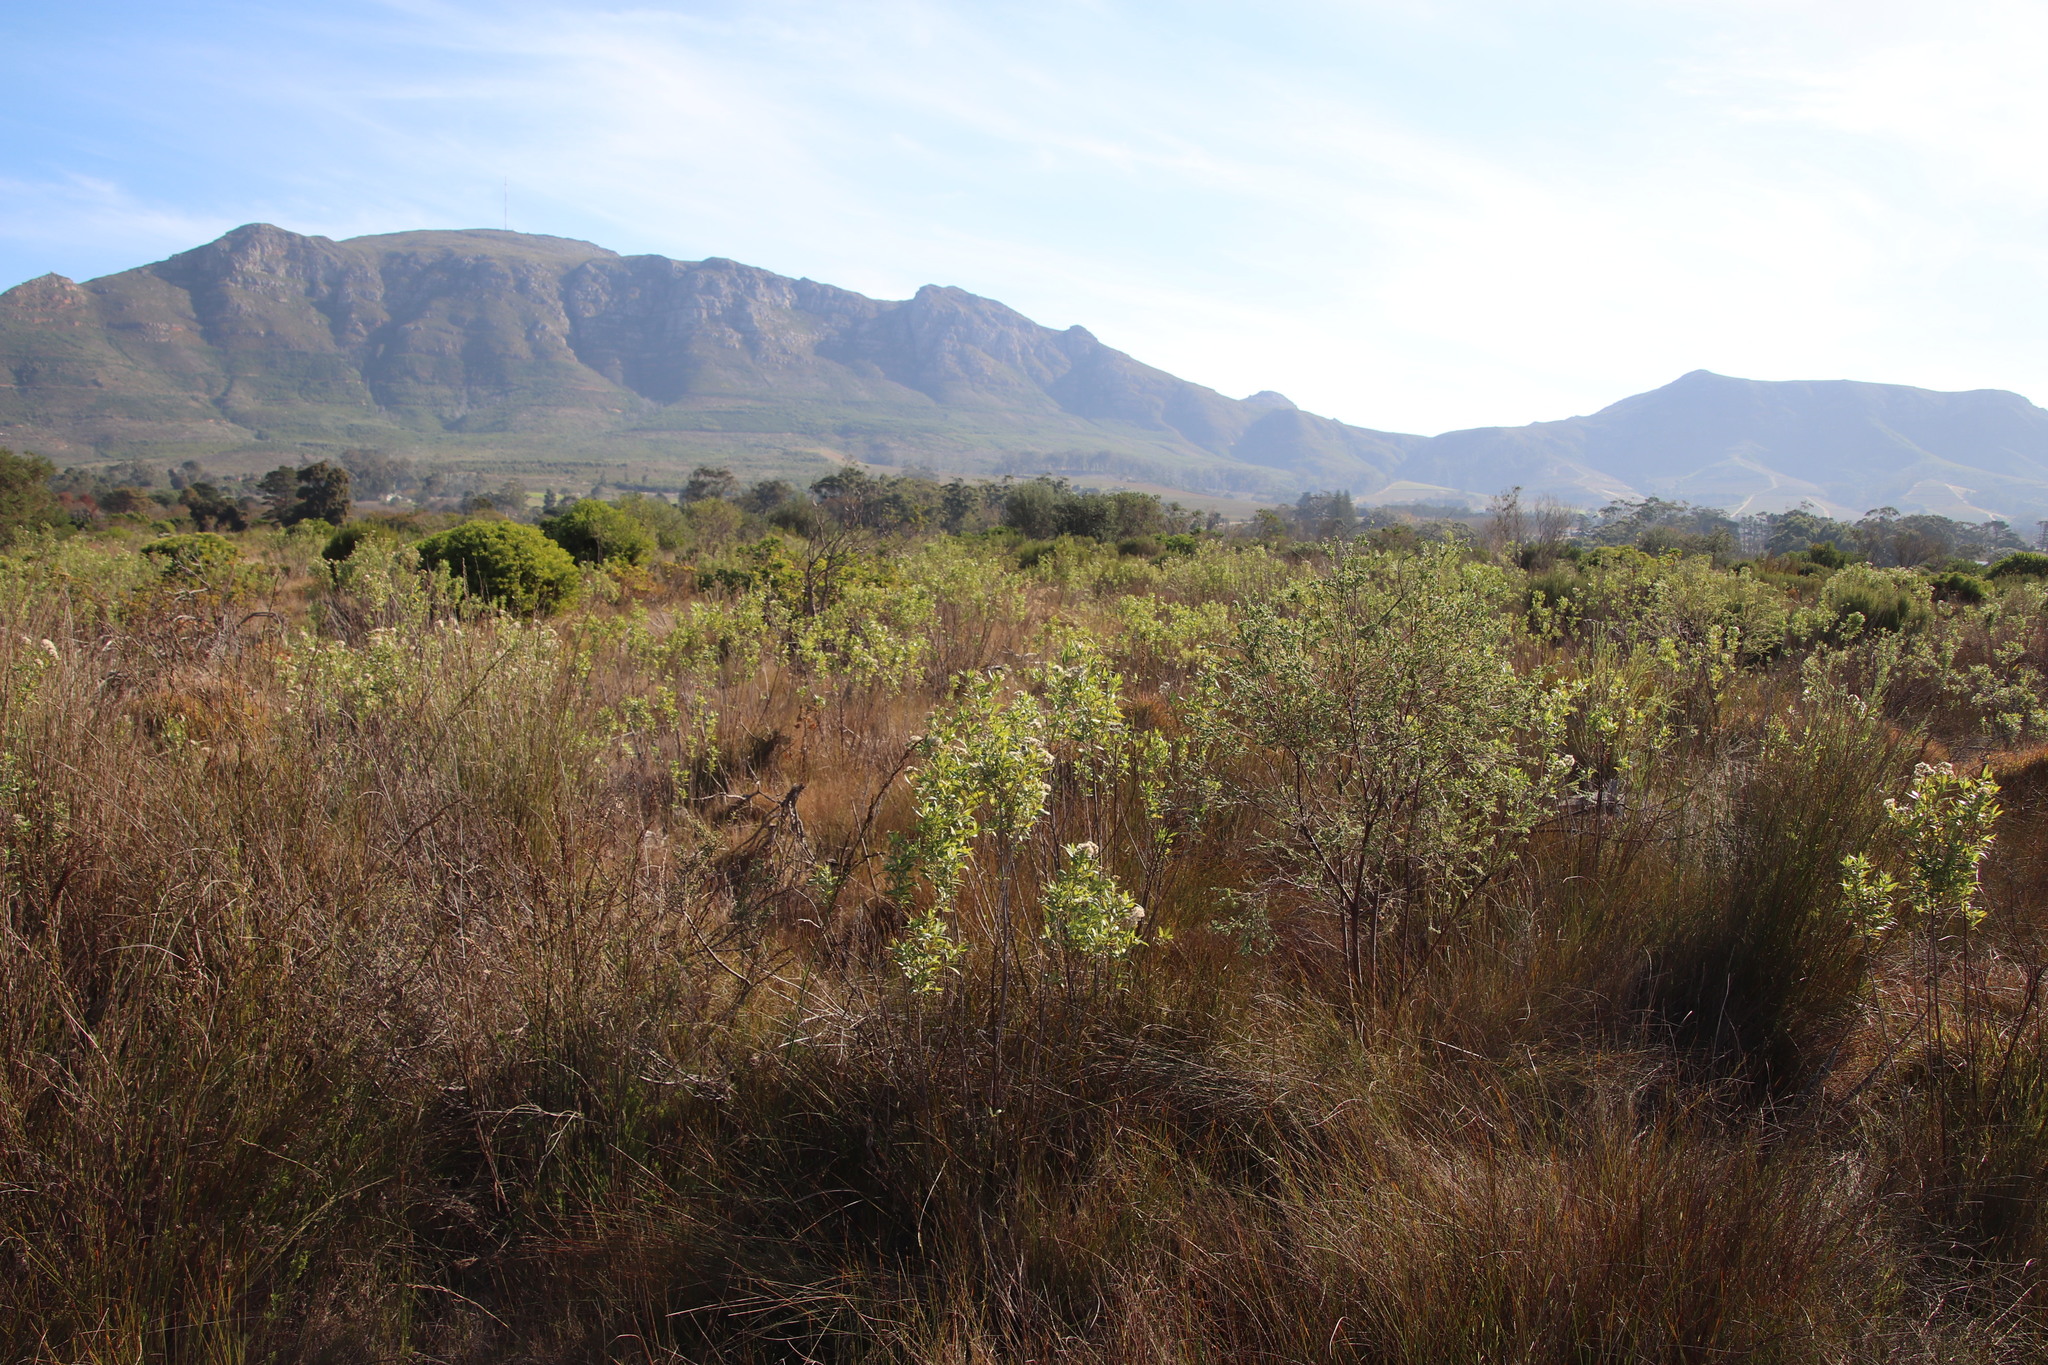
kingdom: Plantae
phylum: Tracheophyta
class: Magnoliopsida
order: Asterales
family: Asteraceae
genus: Nidorella
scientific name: Nidorella ivifolia
